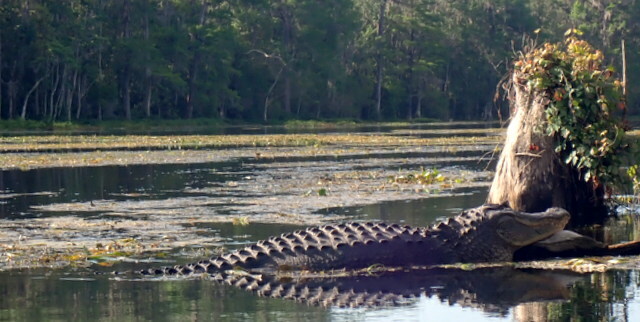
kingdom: Animalia
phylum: Chordata
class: Crocodylia
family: Alligatoridae
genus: Alligator
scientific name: Alligator mississippiensis
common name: American alligator
